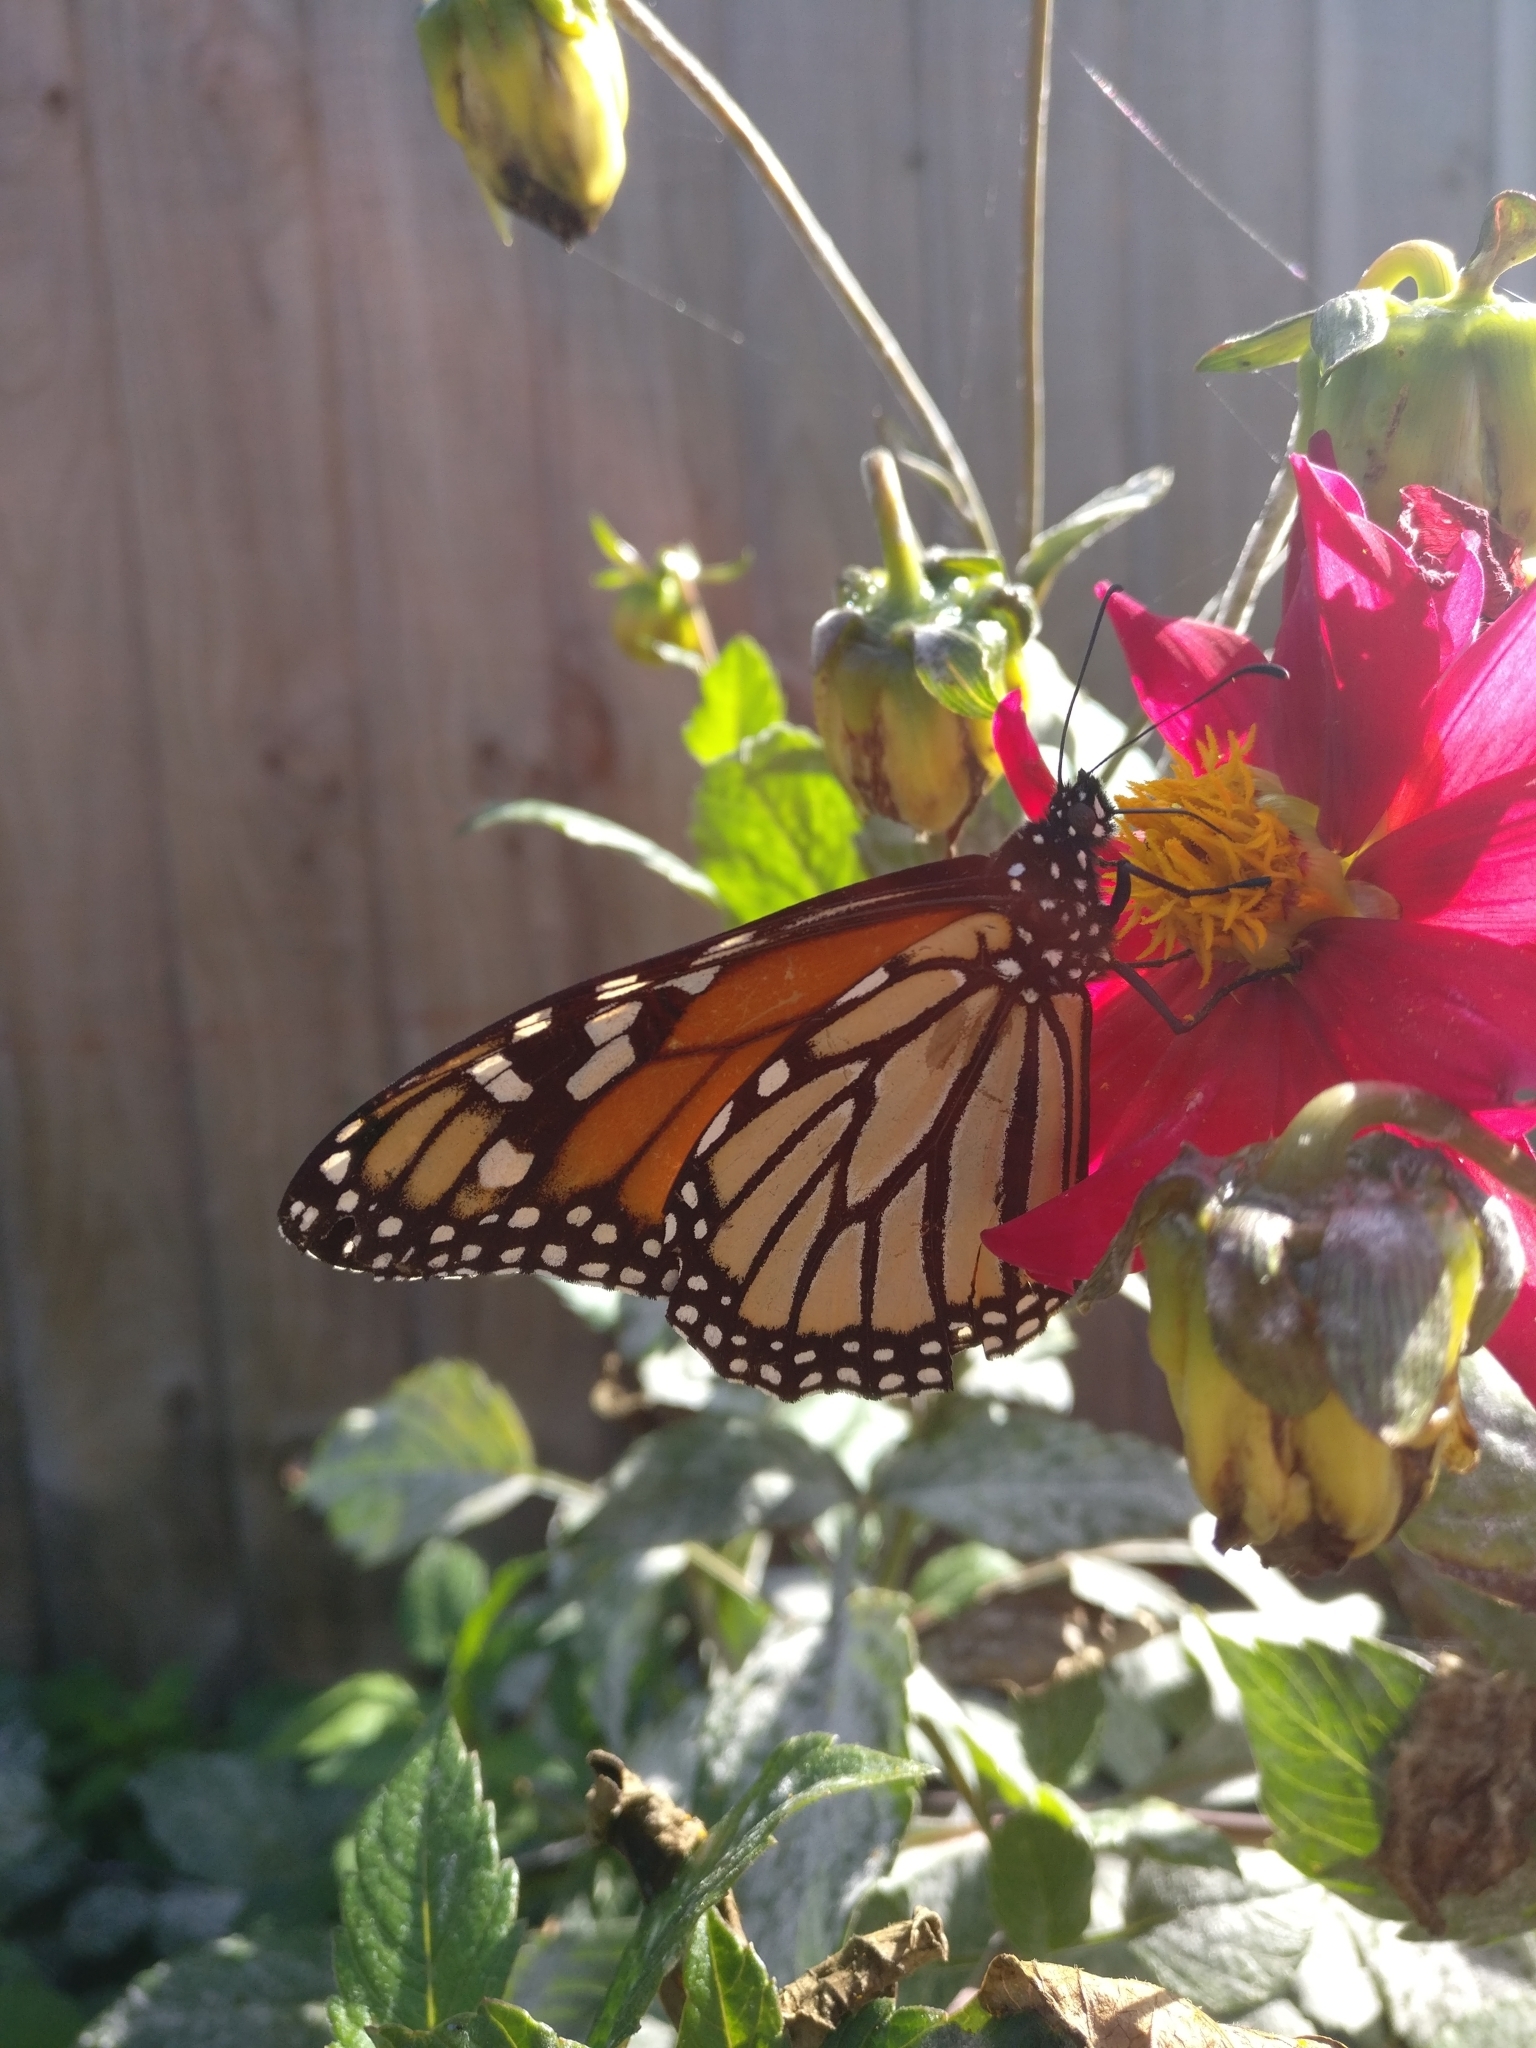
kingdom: Animalia
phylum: Arthropoda
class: Insecta
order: Lepidoptera
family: Nymphalidae
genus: Danaus
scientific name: Danaus plexippus
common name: Monarch
